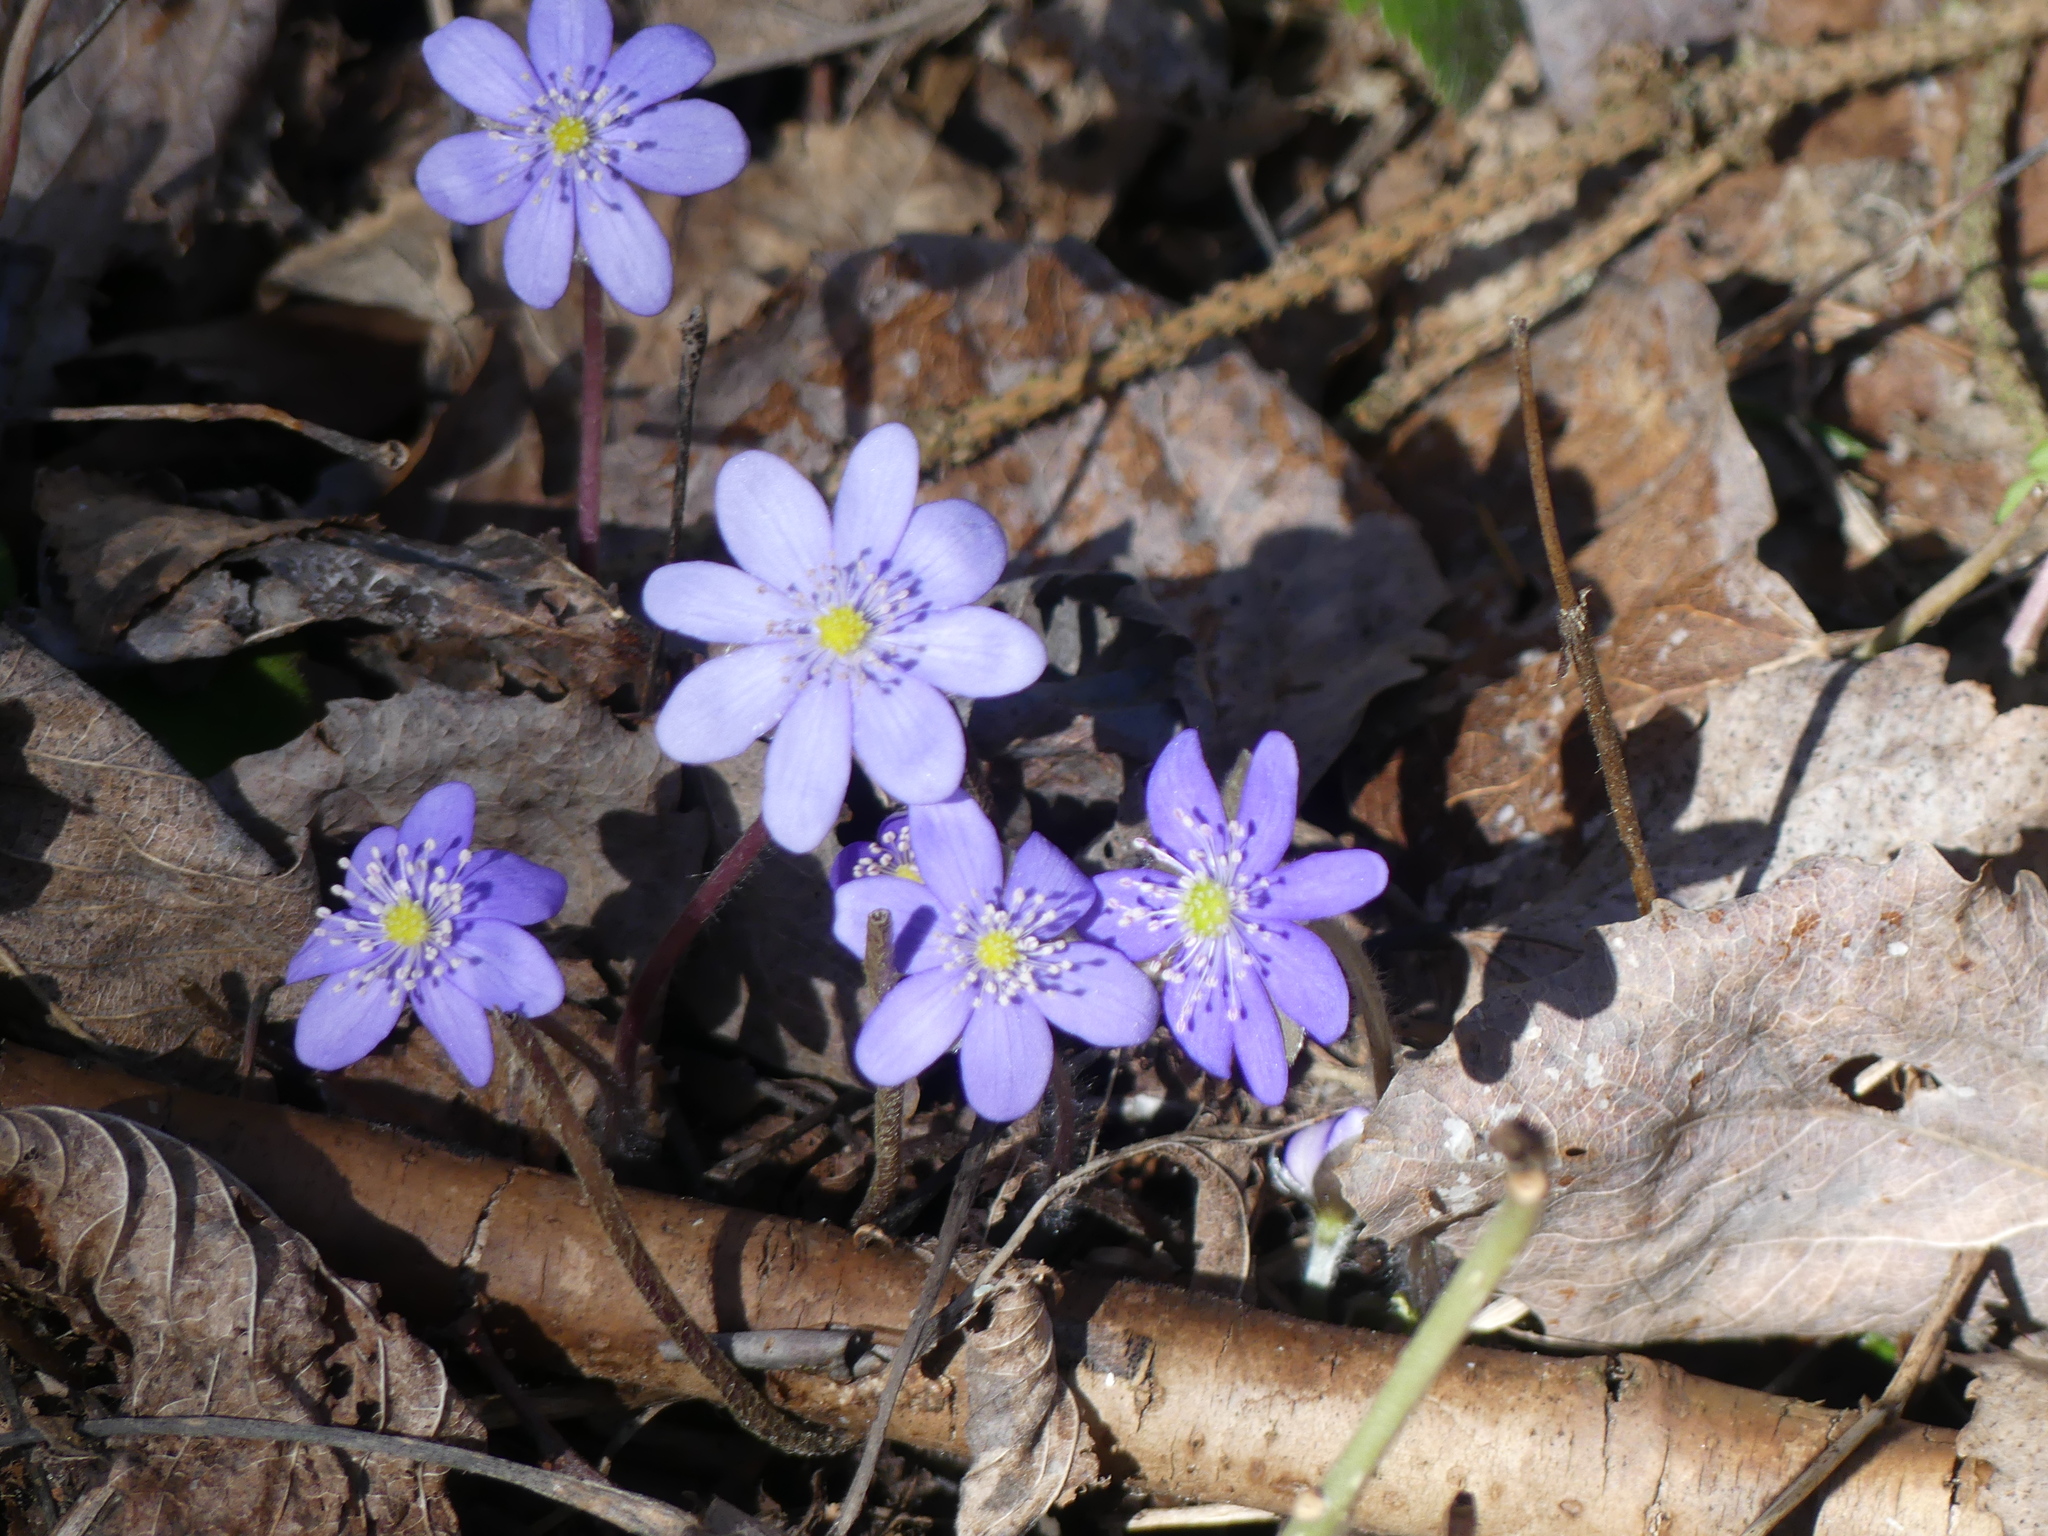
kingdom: Plantae
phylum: Tracheophyta
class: Magnoliopsida
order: Ranunculales
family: Ranunculaceae
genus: Hepatica
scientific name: Hepatica nobilis
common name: Liverleaf
